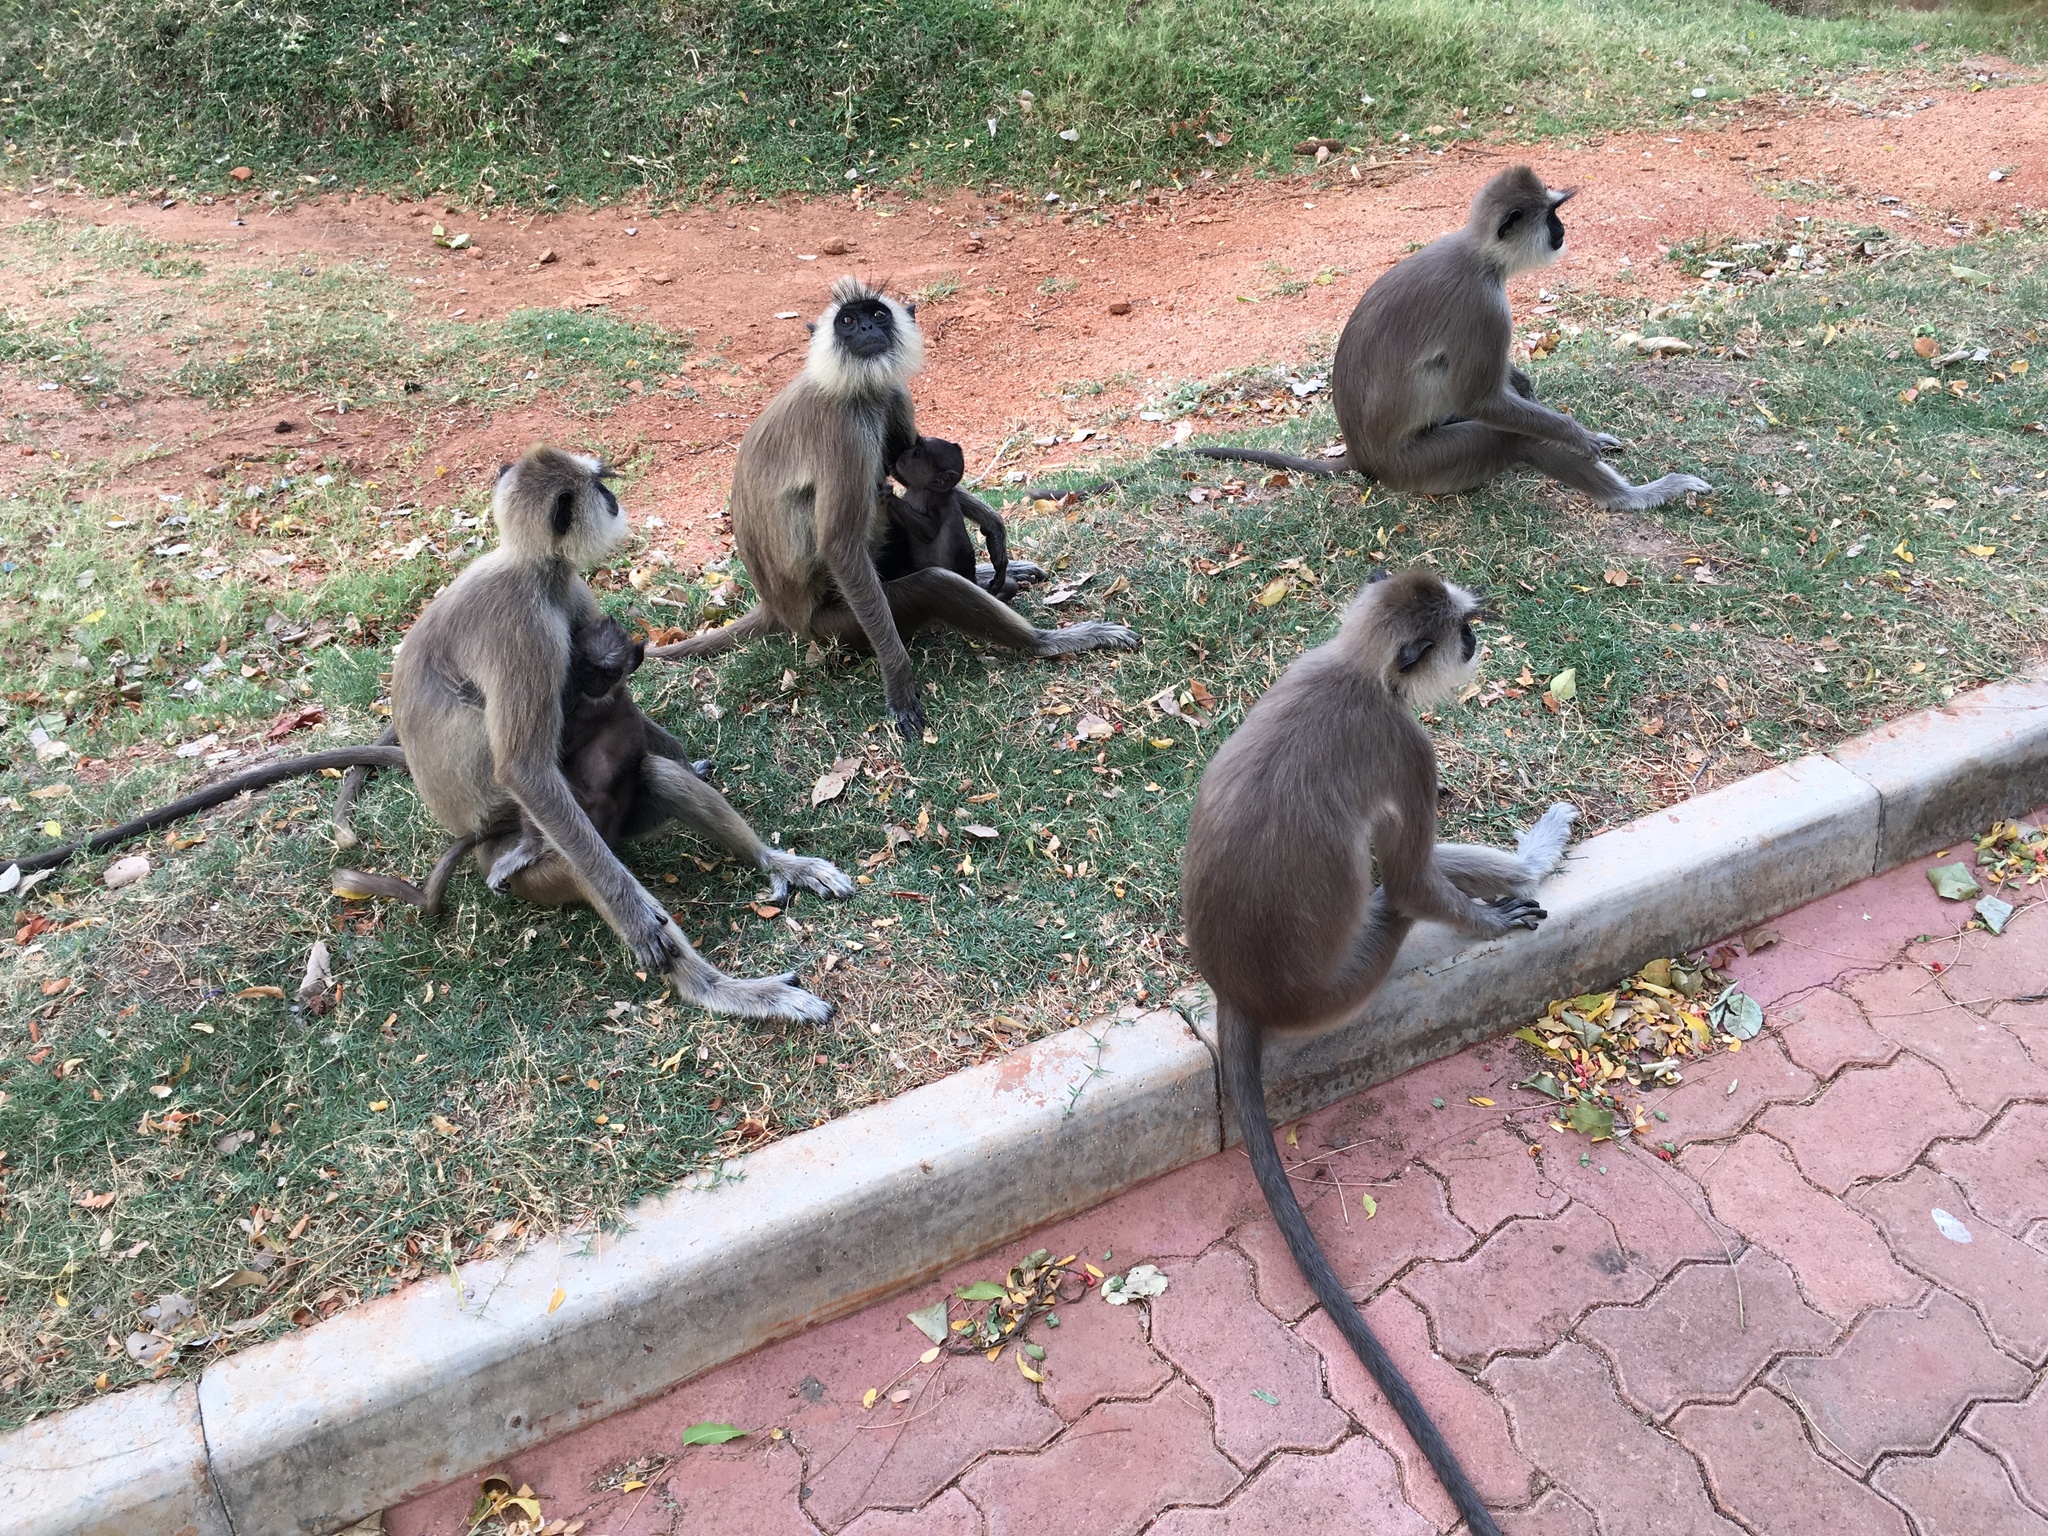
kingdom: Animalia
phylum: Chordata
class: Mammalia
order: Primates
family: Cercopithecidae
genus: Semnopithecus
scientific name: Semnopithecus priam
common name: Tufted gray langur
